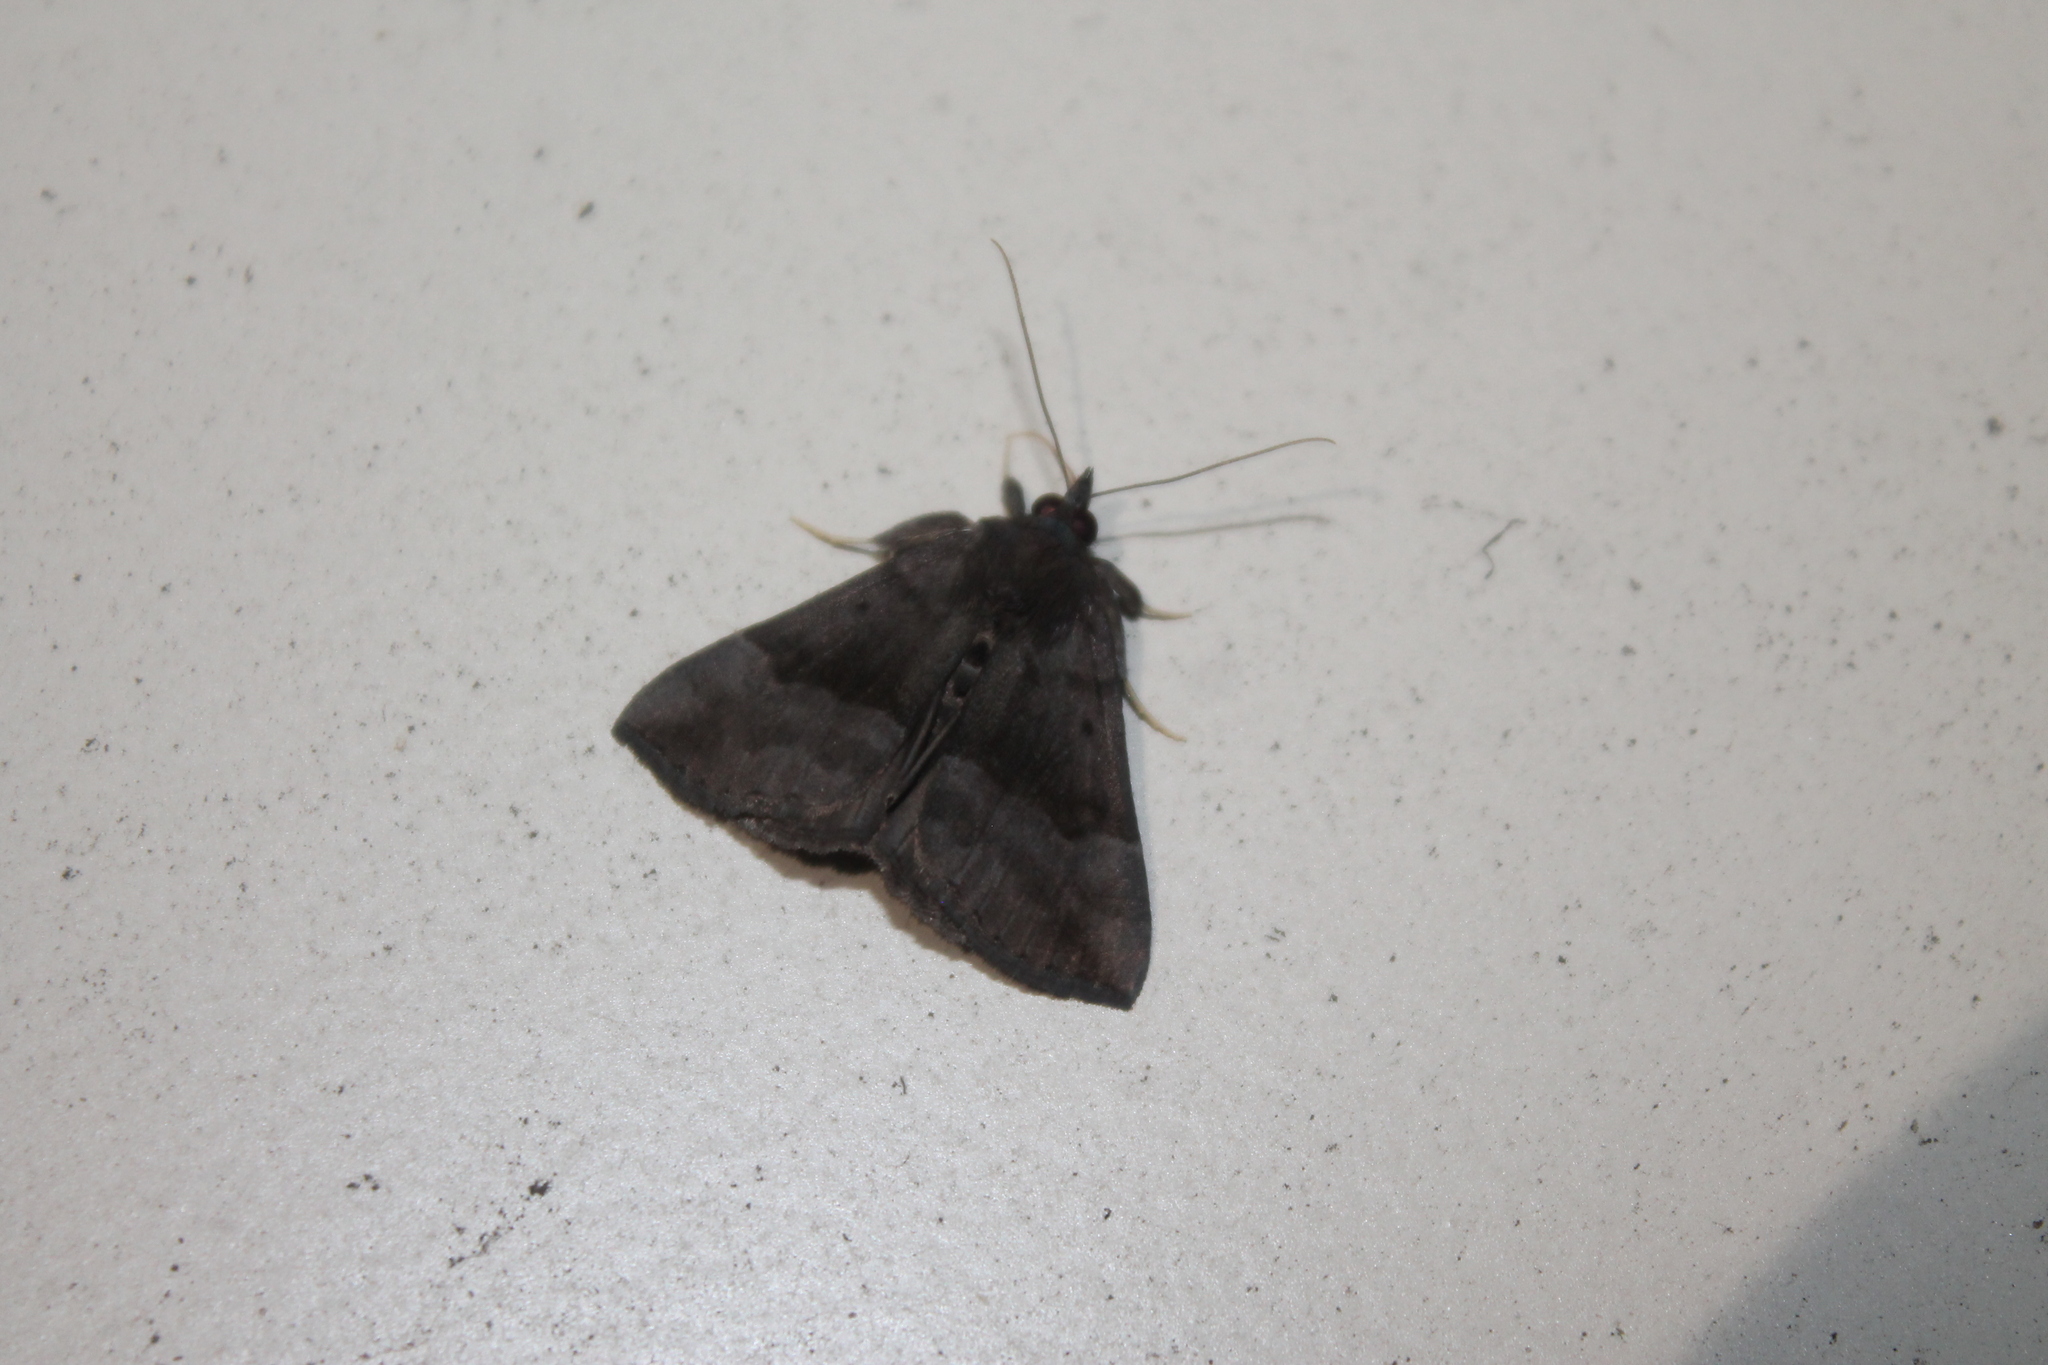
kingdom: Animalia
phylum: Arthropoda
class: Insecta
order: Lepidoptera
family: Erebidae
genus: Hypena
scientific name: Hypena madefactalis
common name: Gray-edged snout
